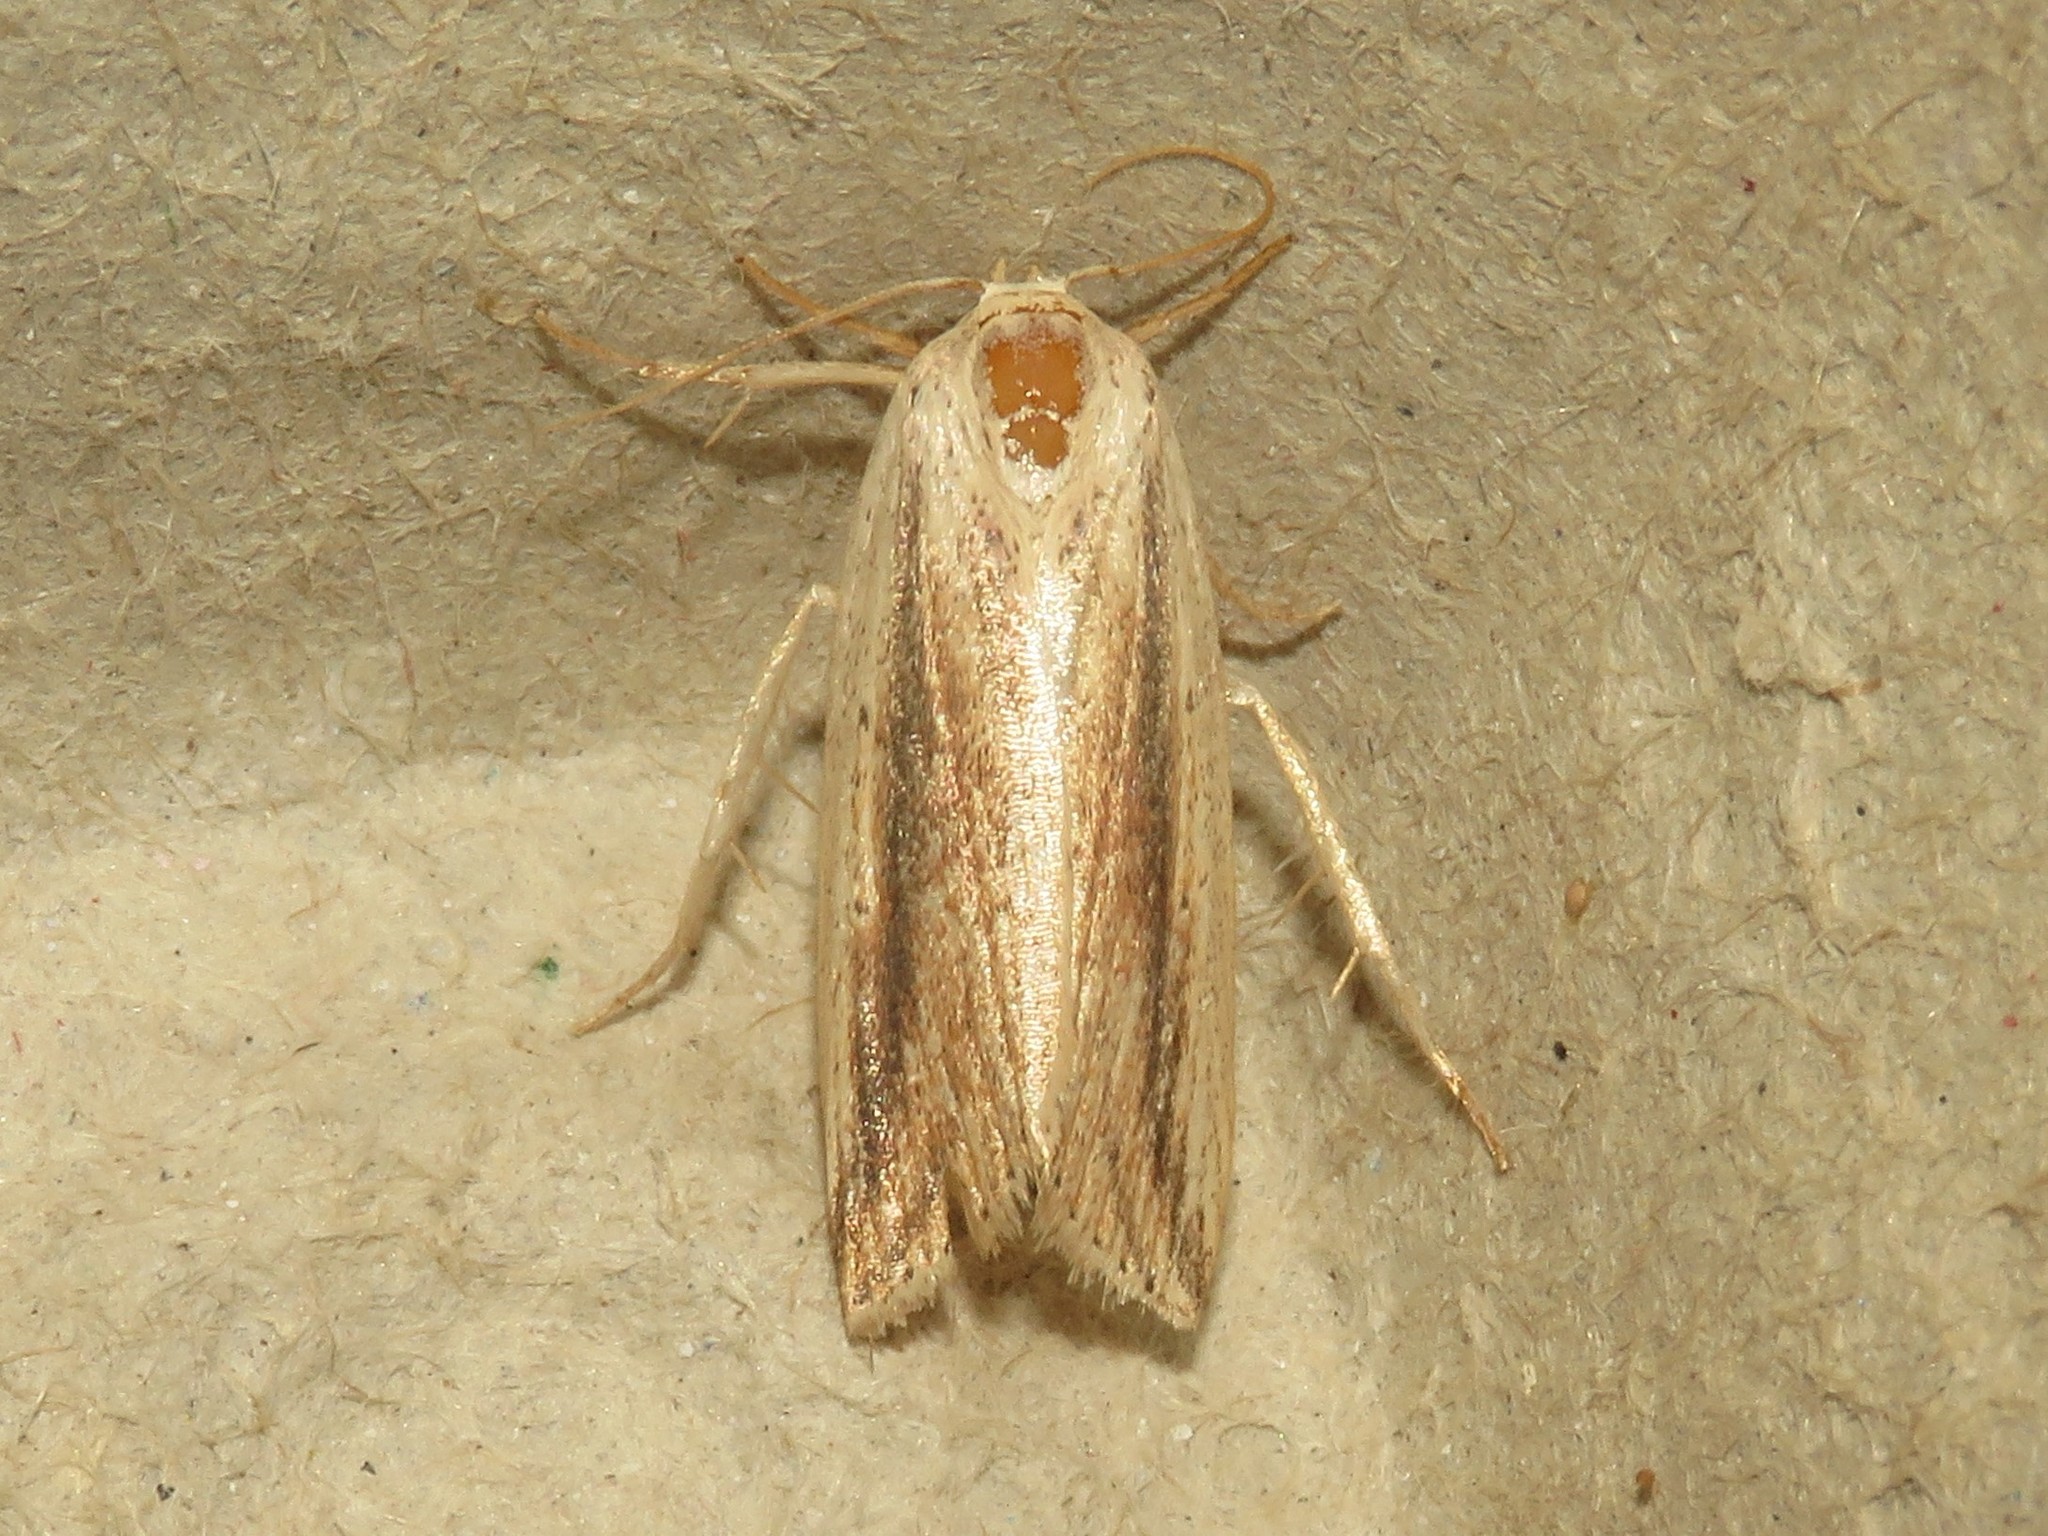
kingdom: Animalia
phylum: Arthropoda
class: Insecta
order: Lepidoptera
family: Noctuidae
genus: Amolita
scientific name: Amolita fessa
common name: Feeble grass moth
